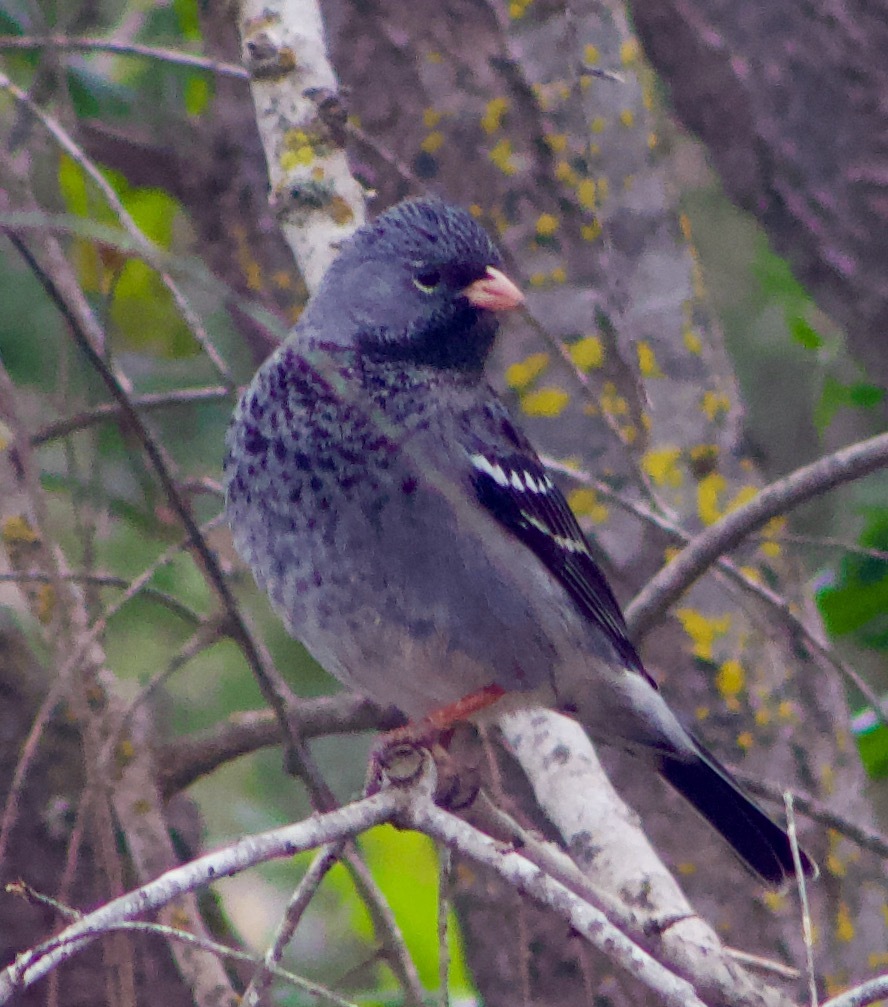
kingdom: Animalia
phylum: Chordata
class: Aves
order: Passeriformes
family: Thraupidae
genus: Rhopospina
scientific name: Rhopospina fruticeti
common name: Mourning sierra finch
